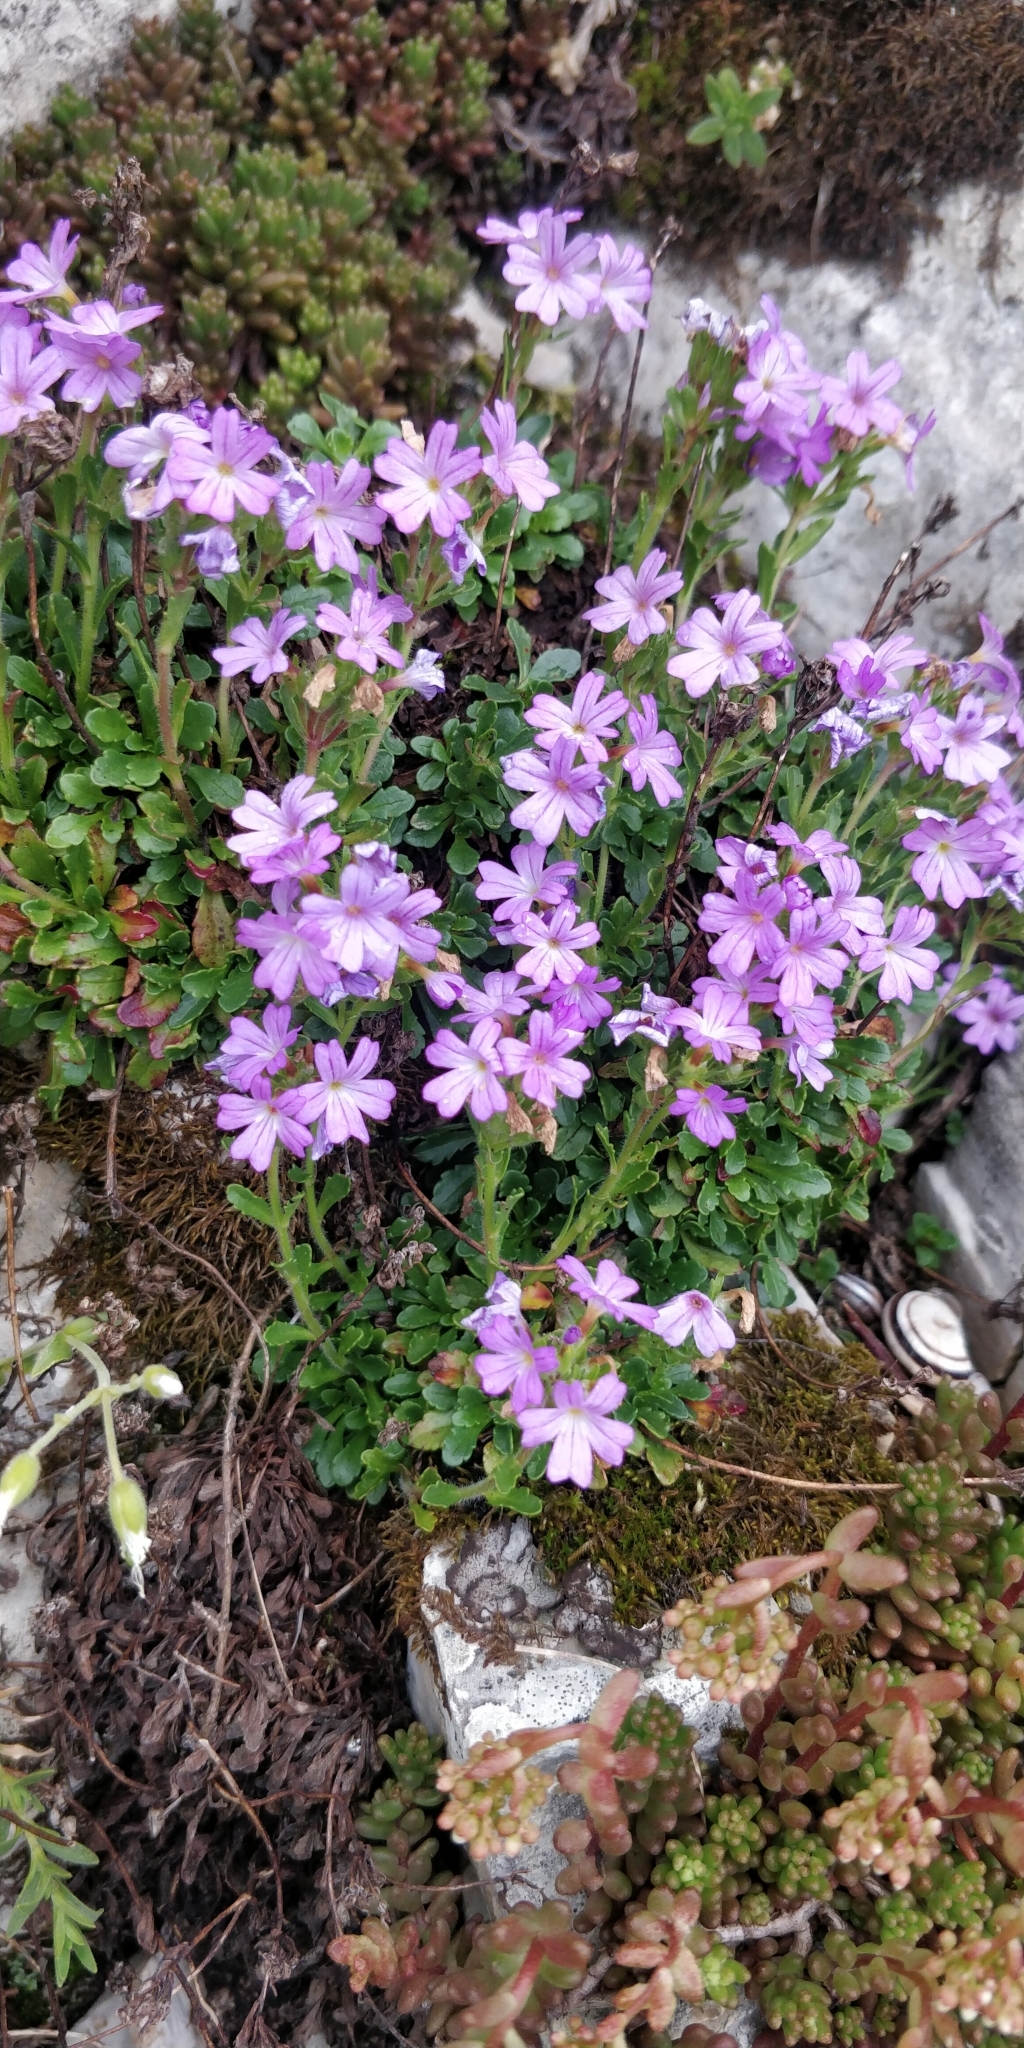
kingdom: Plantae
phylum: Tracheophyta
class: Magnoliopsida
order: Lamiales
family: Plantaginaceae
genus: Erinus
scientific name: Erinus alpinus
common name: Fairy foxglove
